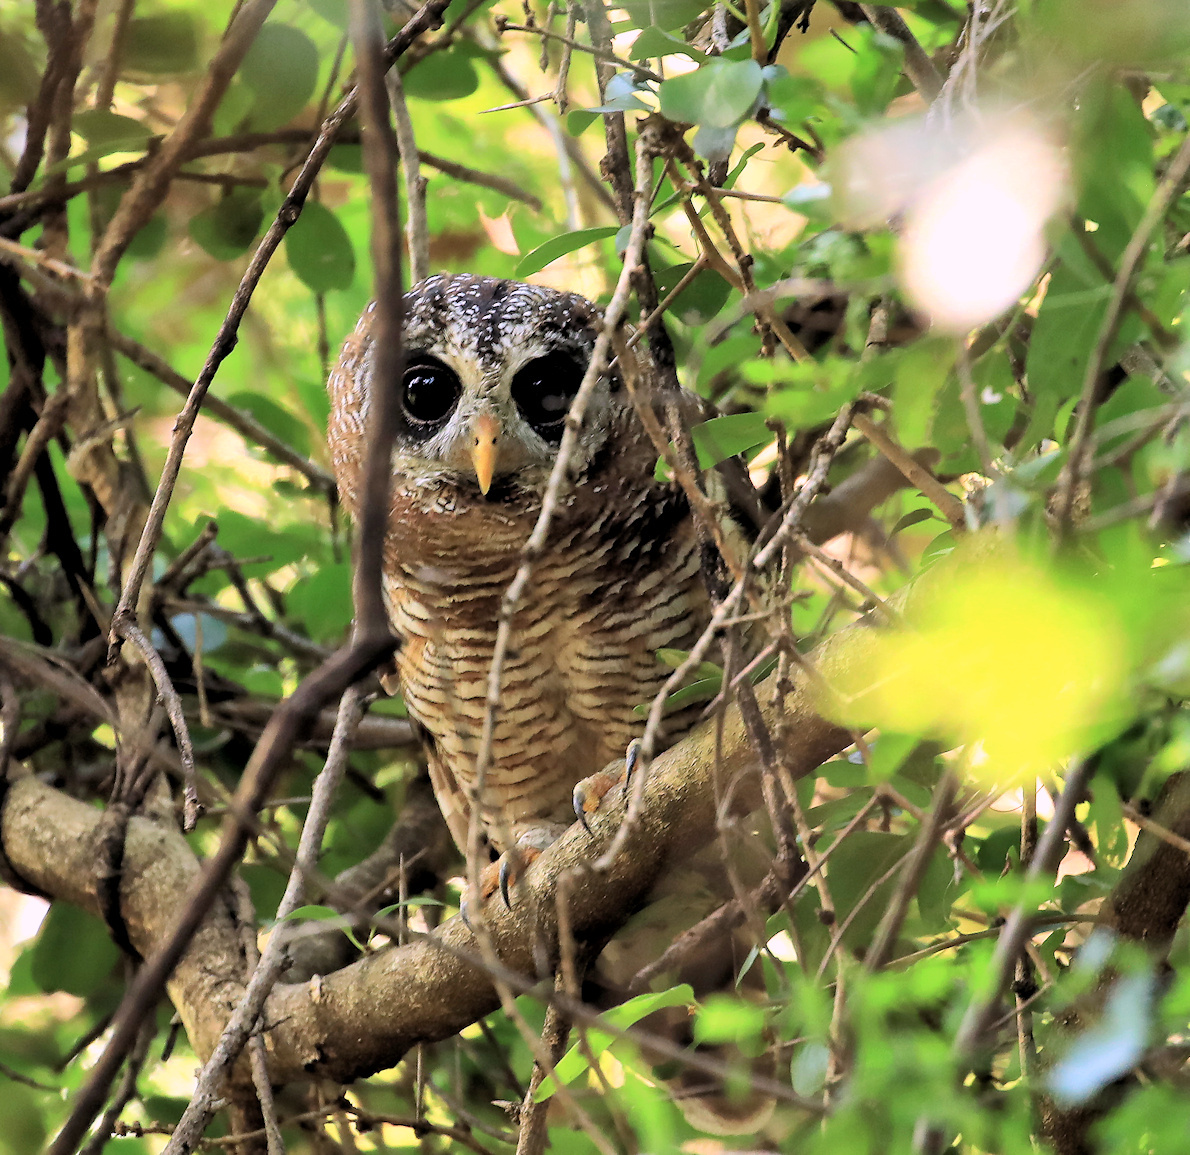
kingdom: Animalia
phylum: Chordata
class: Aves
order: Strigiformes
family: Strigidae
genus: Strix
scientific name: Strix woodfordii
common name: African wood owl
